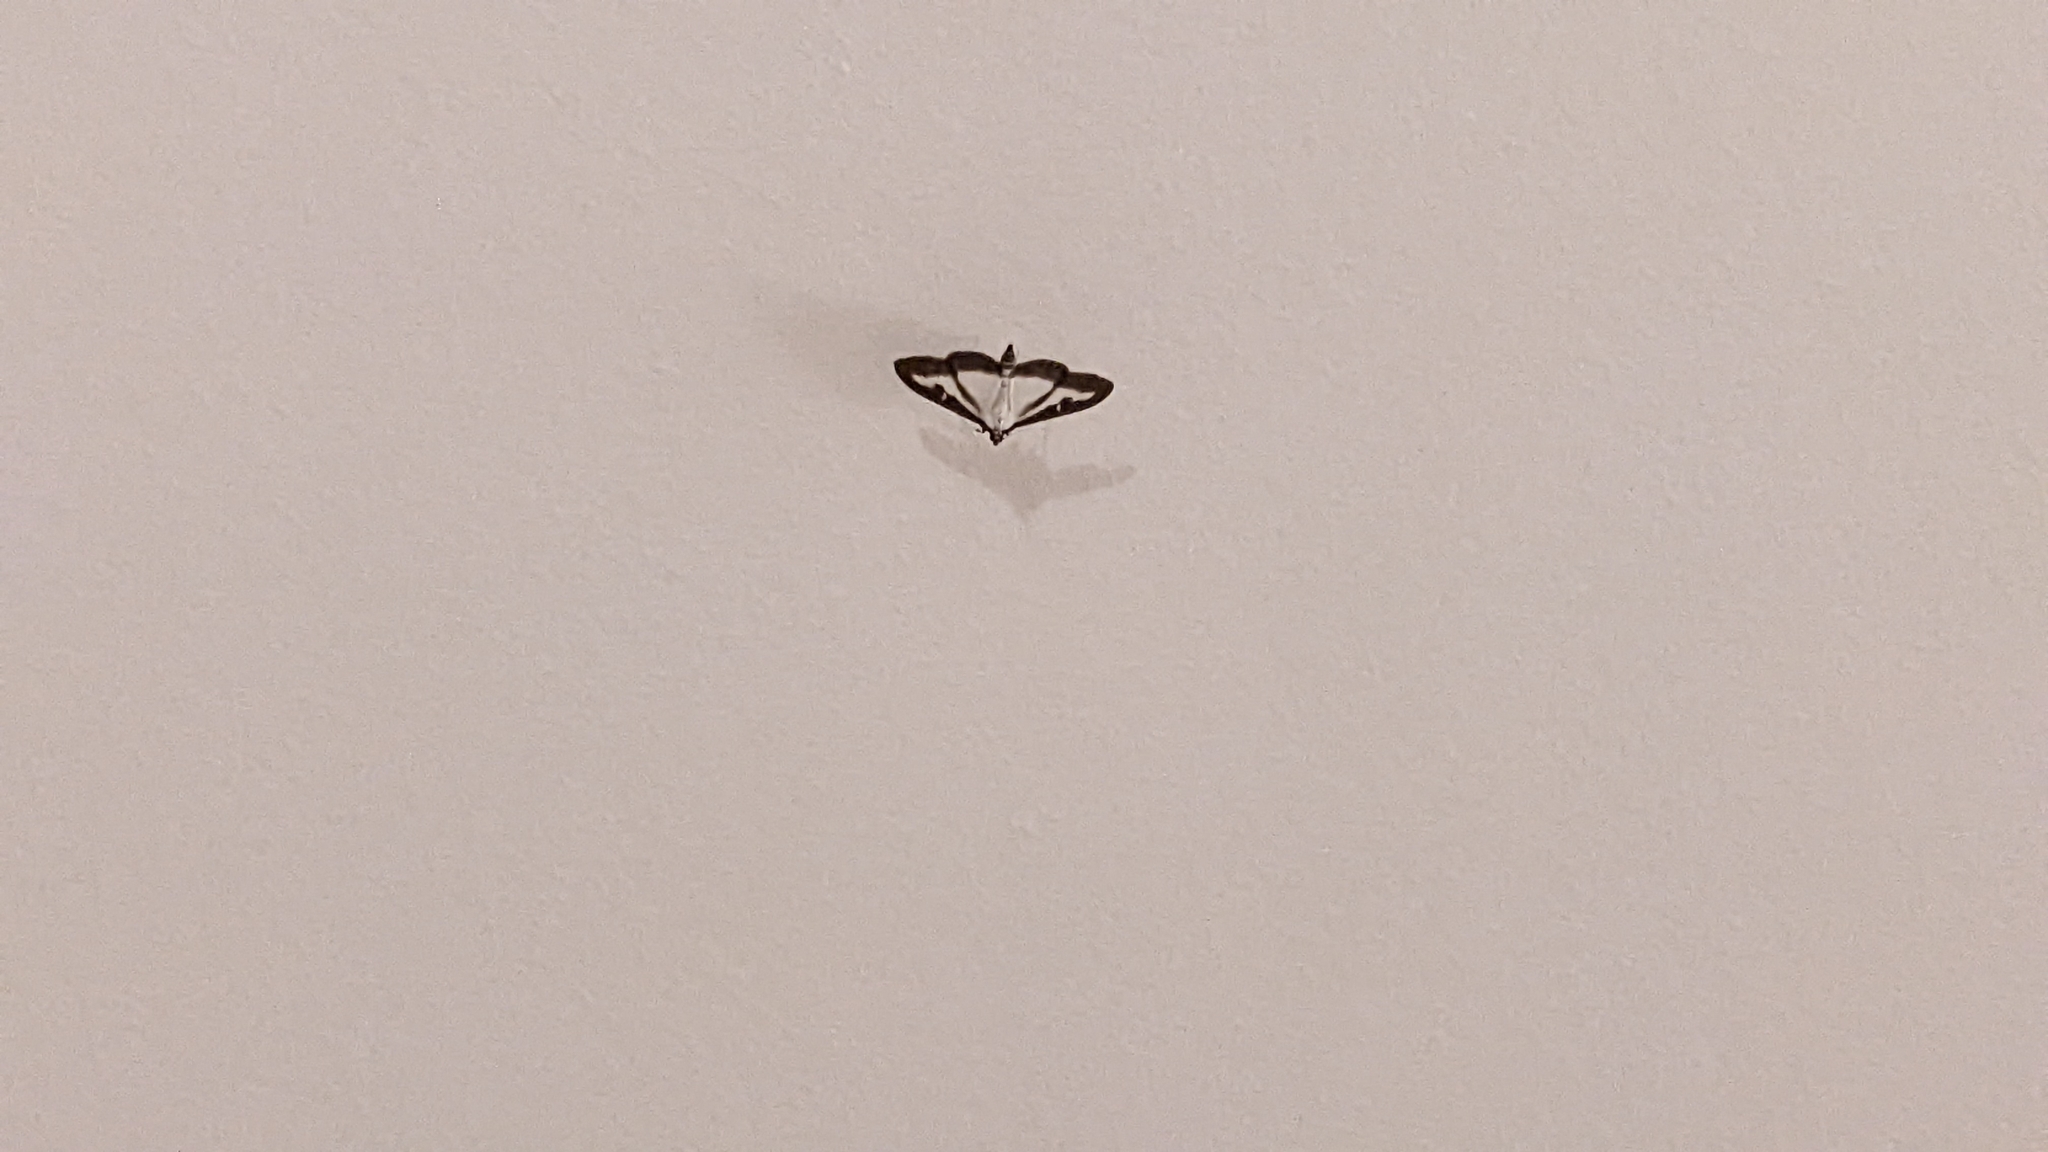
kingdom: Animalia
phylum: Arthropoda
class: Insecta
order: Lepidoptera
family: Crambidae
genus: Cydalima
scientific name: Cydalima perspectalis
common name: Box tree moth
